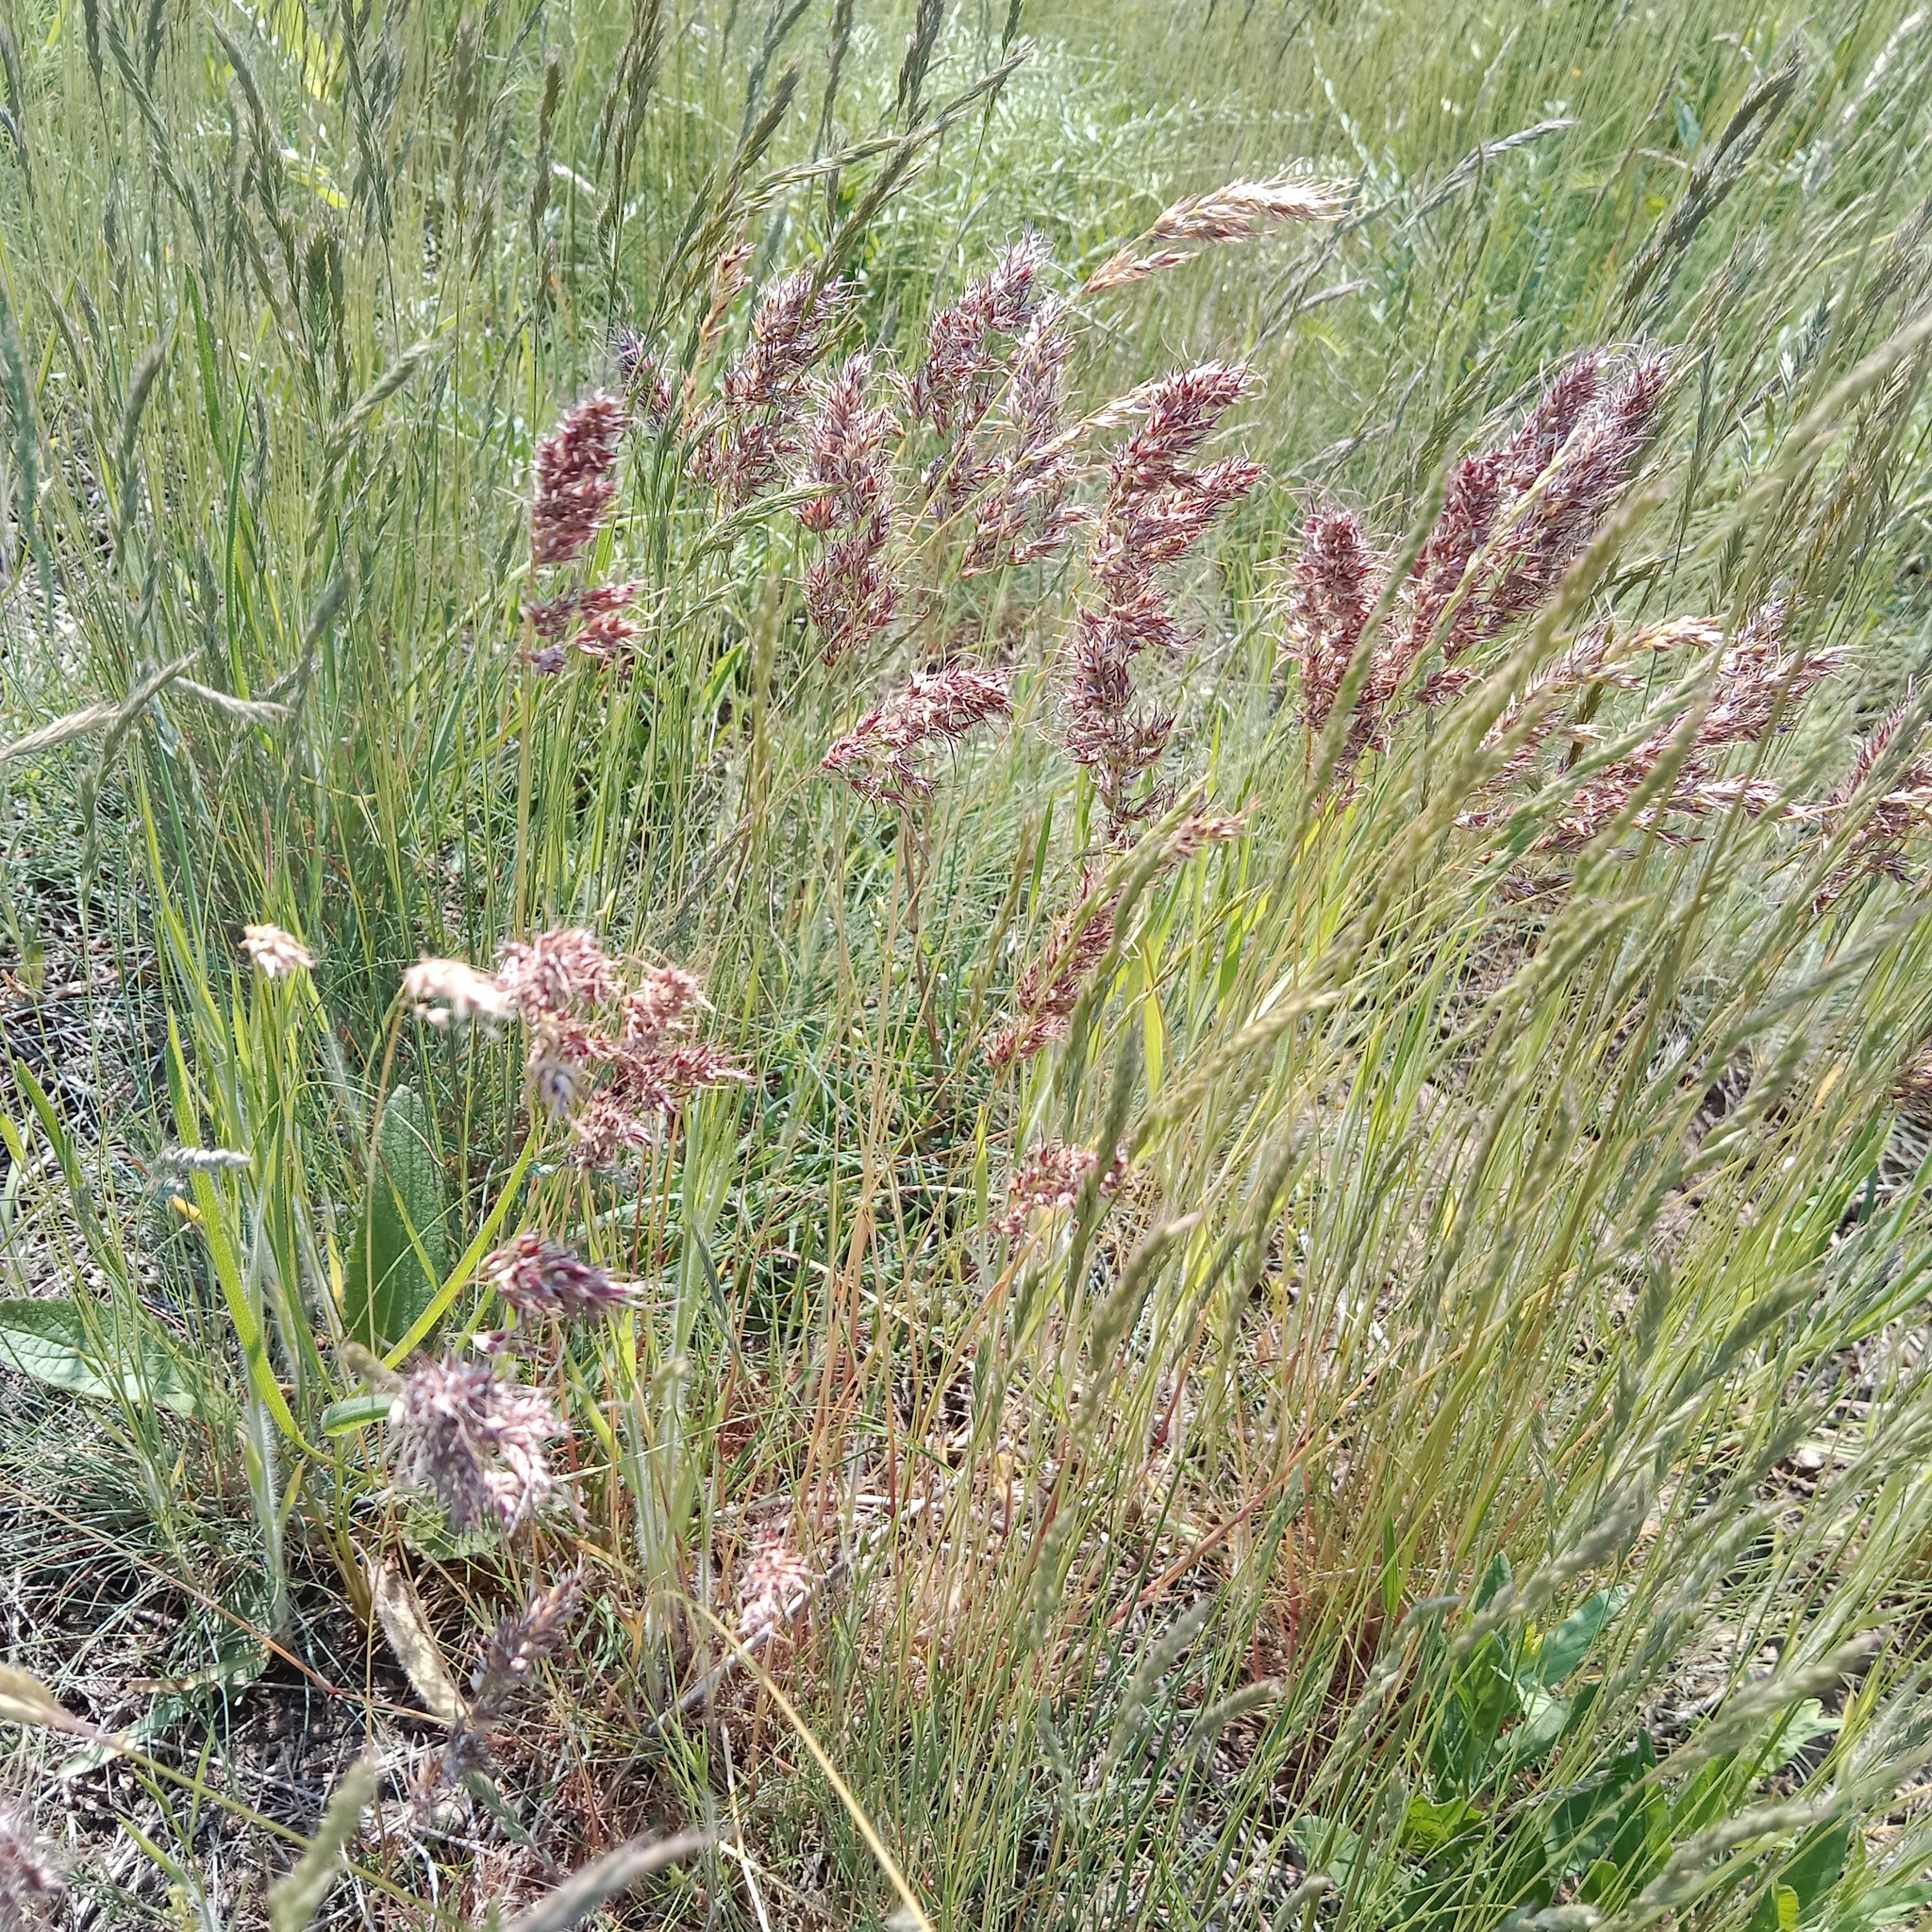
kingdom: Plantae
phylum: Tracheophyta
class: Liliopsida
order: Poales
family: Poaceae
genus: Poa
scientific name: Poa bulbosa
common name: Bulbous bluegrass
